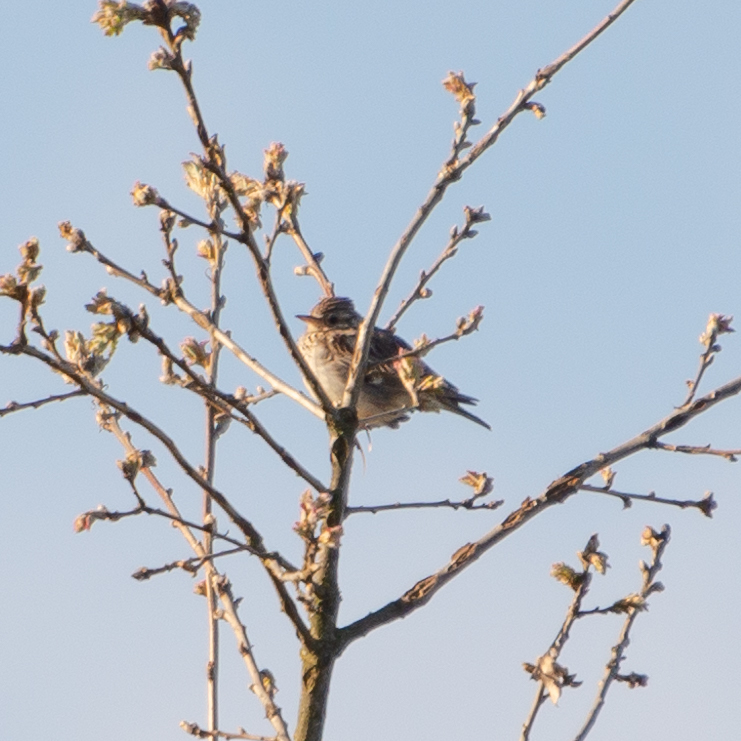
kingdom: Animalia
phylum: Chordata
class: Aves
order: Passeriformes
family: Alaudidae
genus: Lullula
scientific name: Lullula arborea
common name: Woodlark
